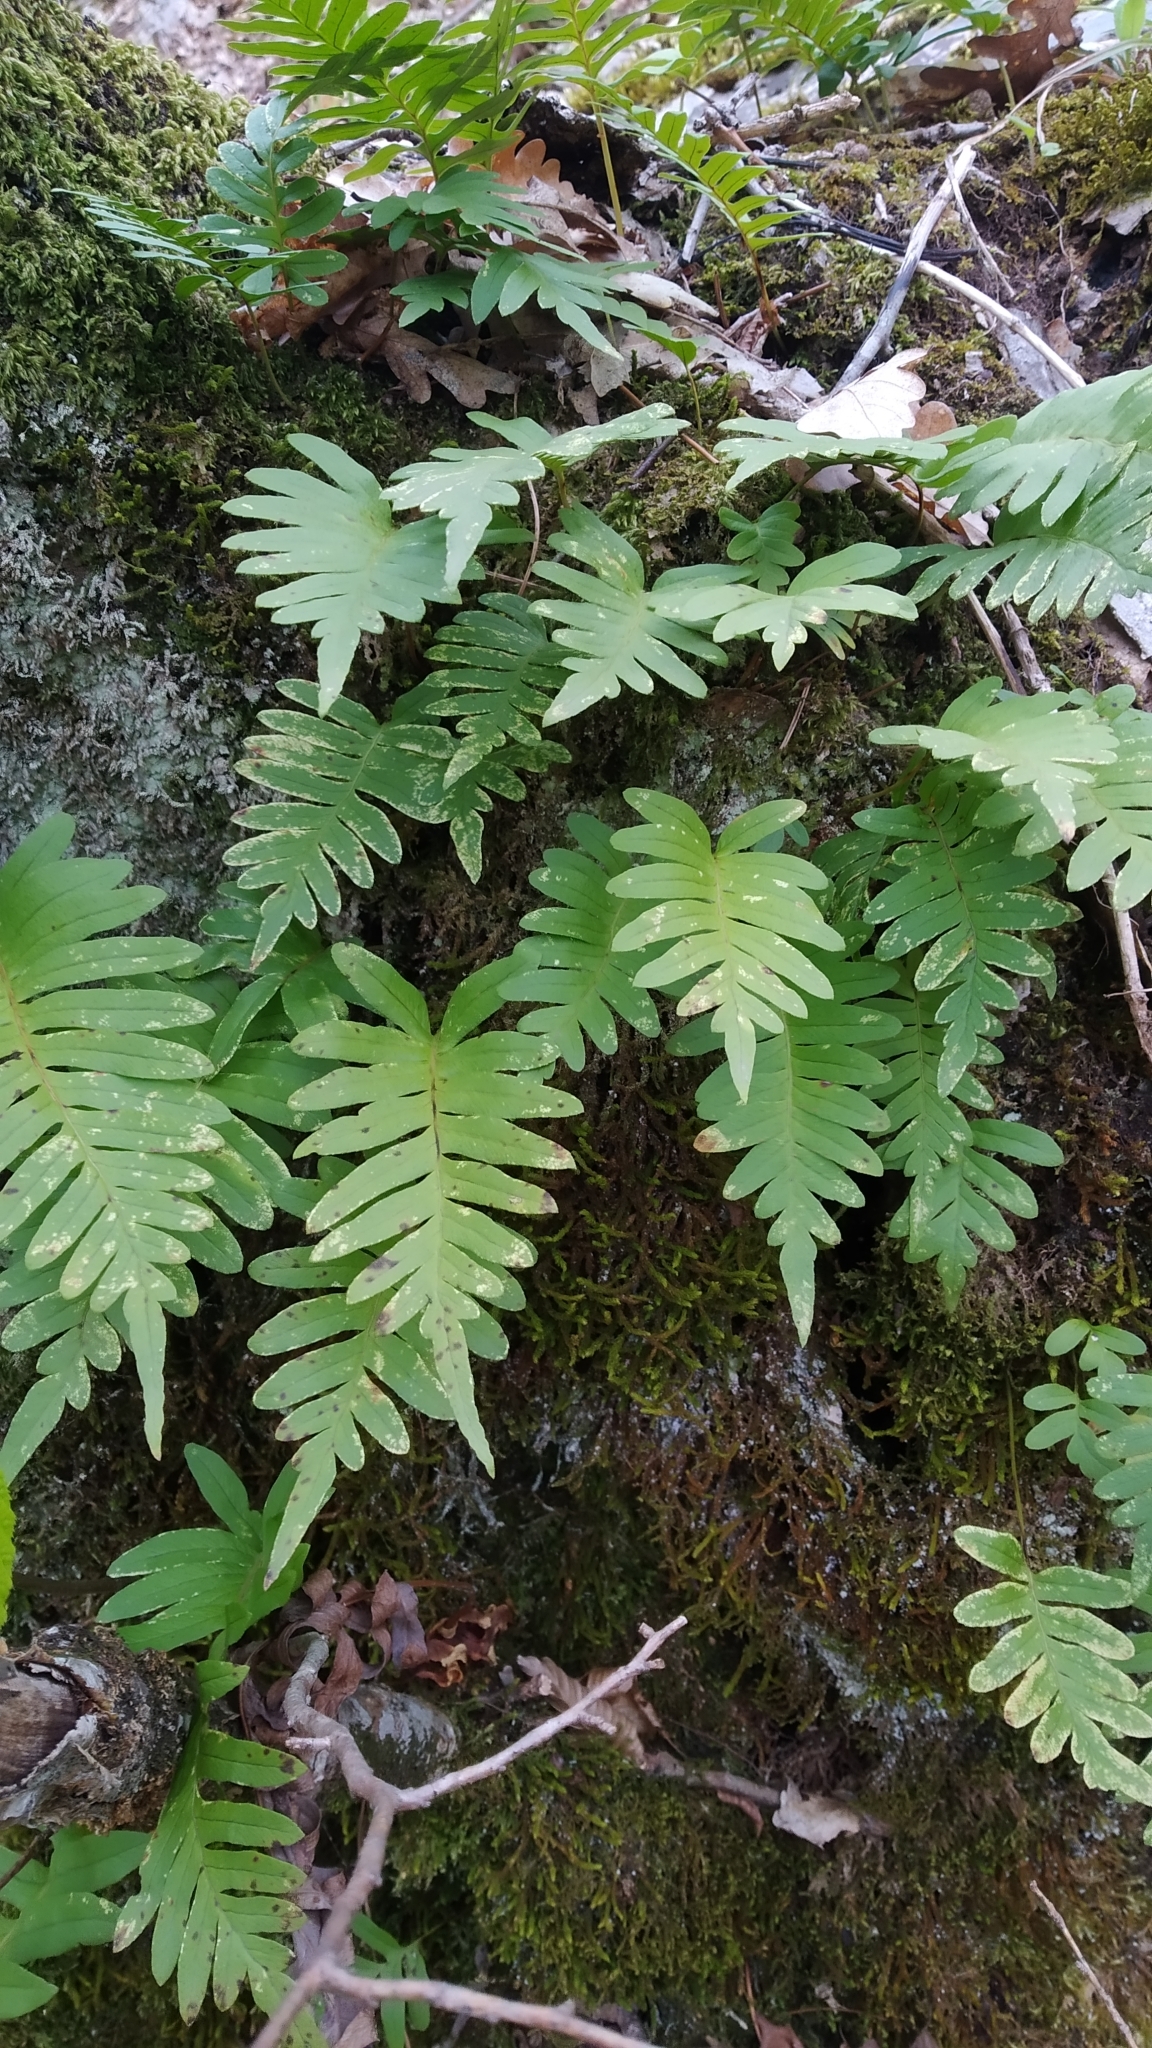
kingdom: Plantae
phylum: Tracheophyta
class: Polypodiopsida
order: Polypodiales
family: Polypodiaceae
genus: Polypodium
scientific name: Polypodium vulgare
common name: Common polypody
